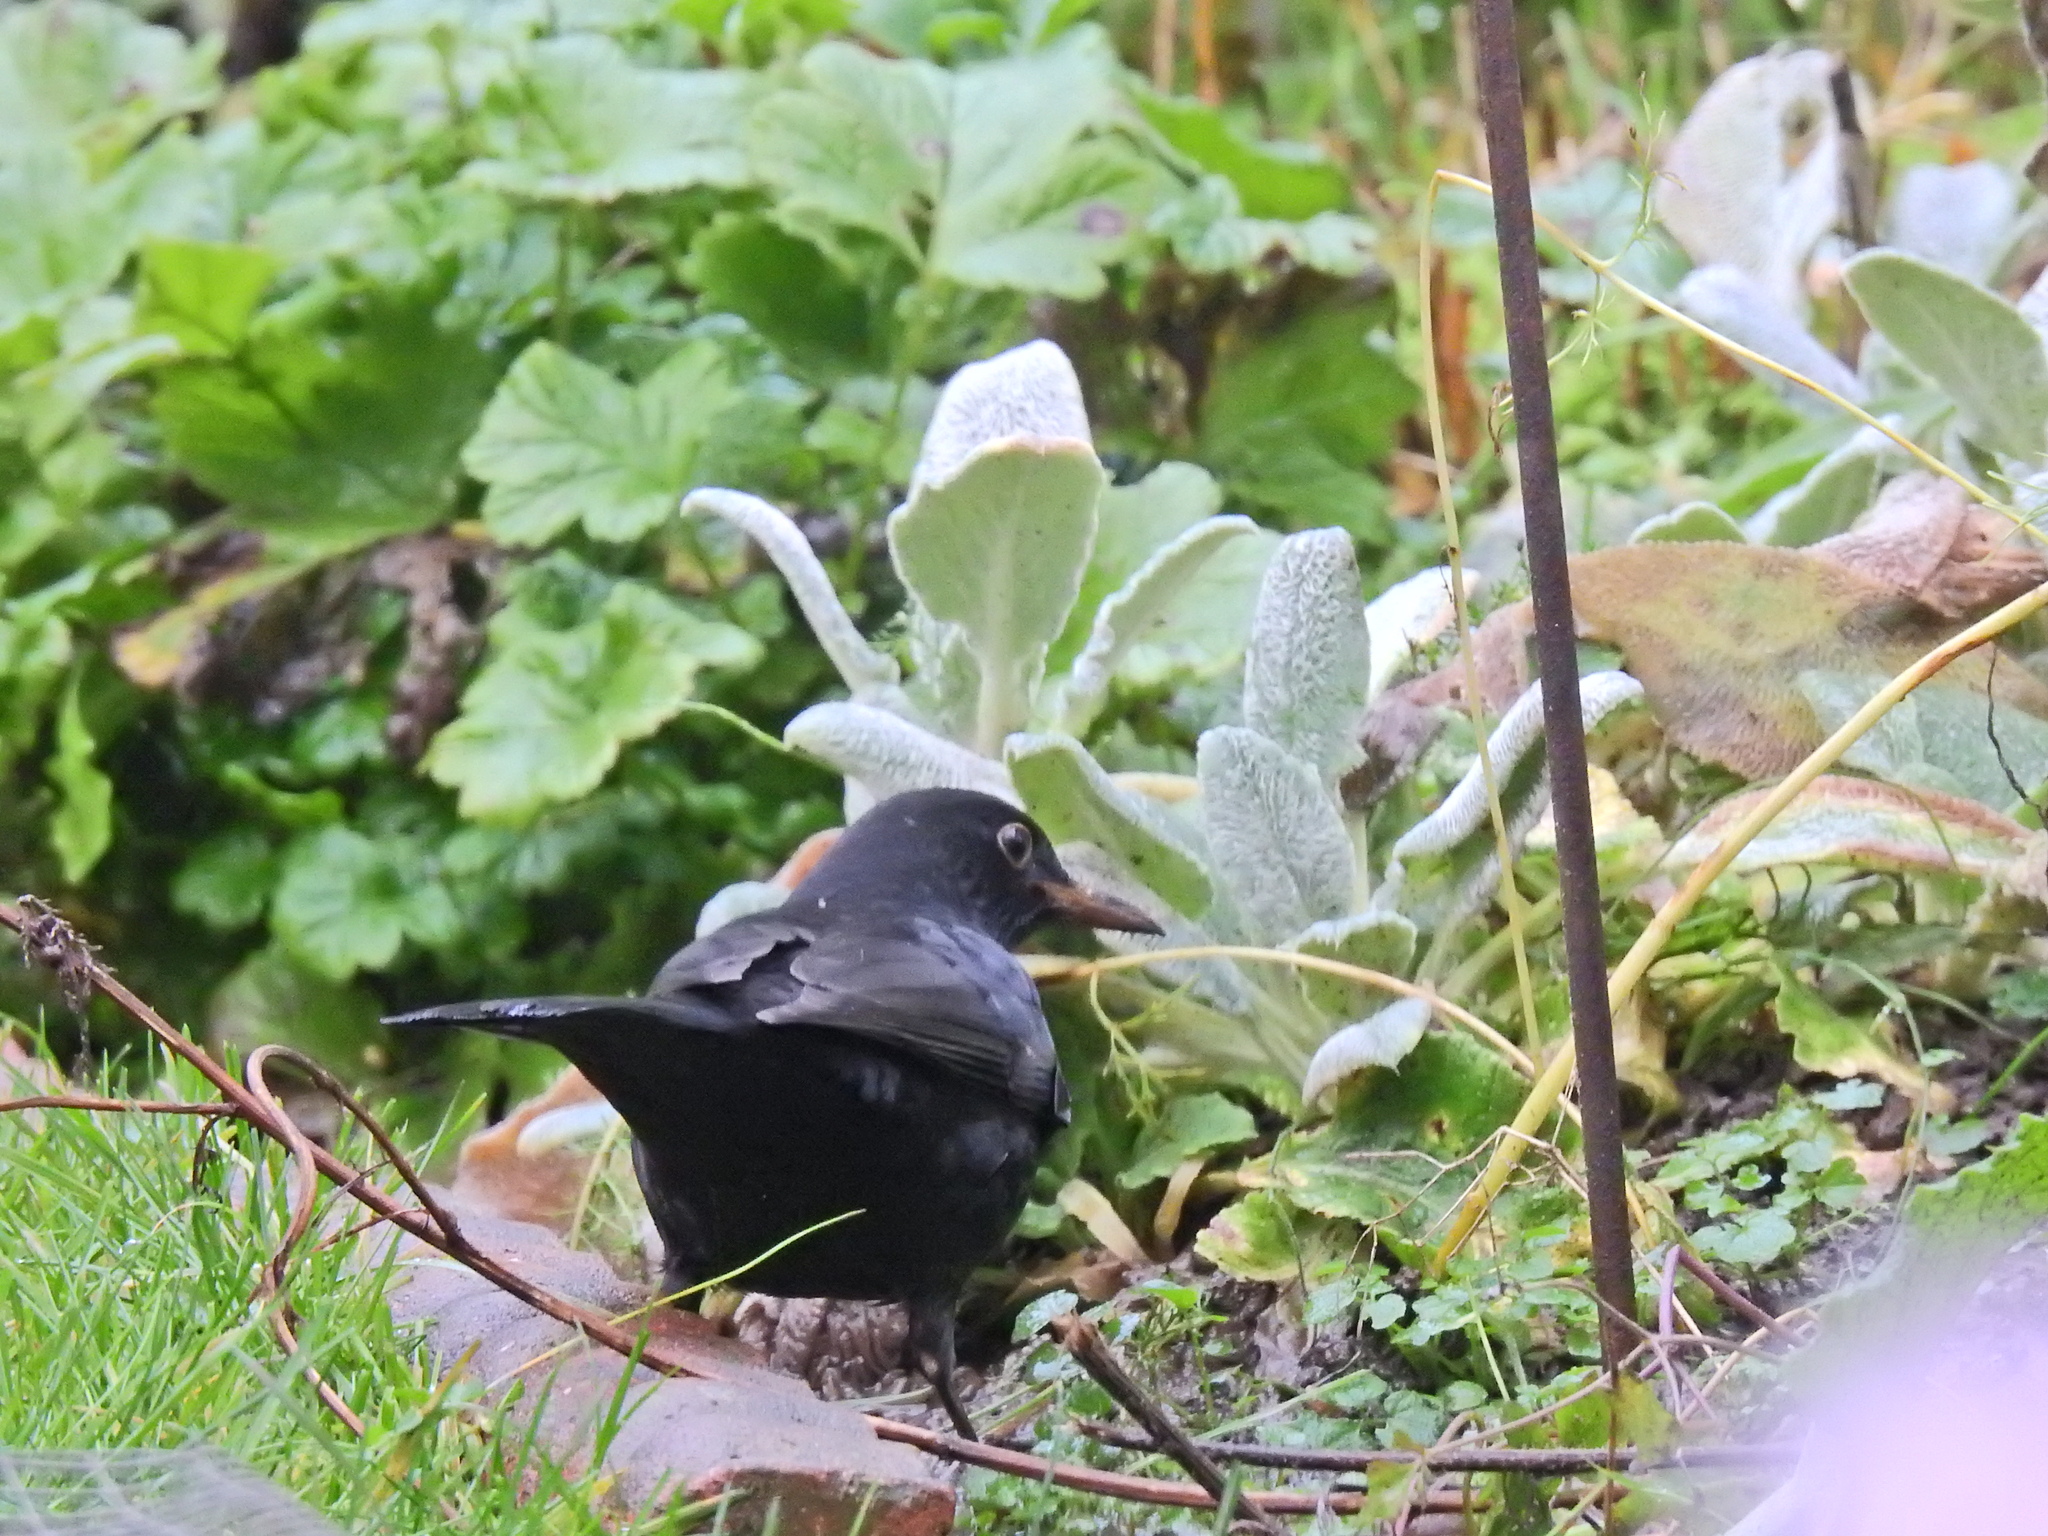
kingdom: Animalia
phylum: Chordata
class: Aves
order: Passeriformes
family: Turdidae
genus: Turdus
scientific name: Turdus merula
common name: Common blackbird
